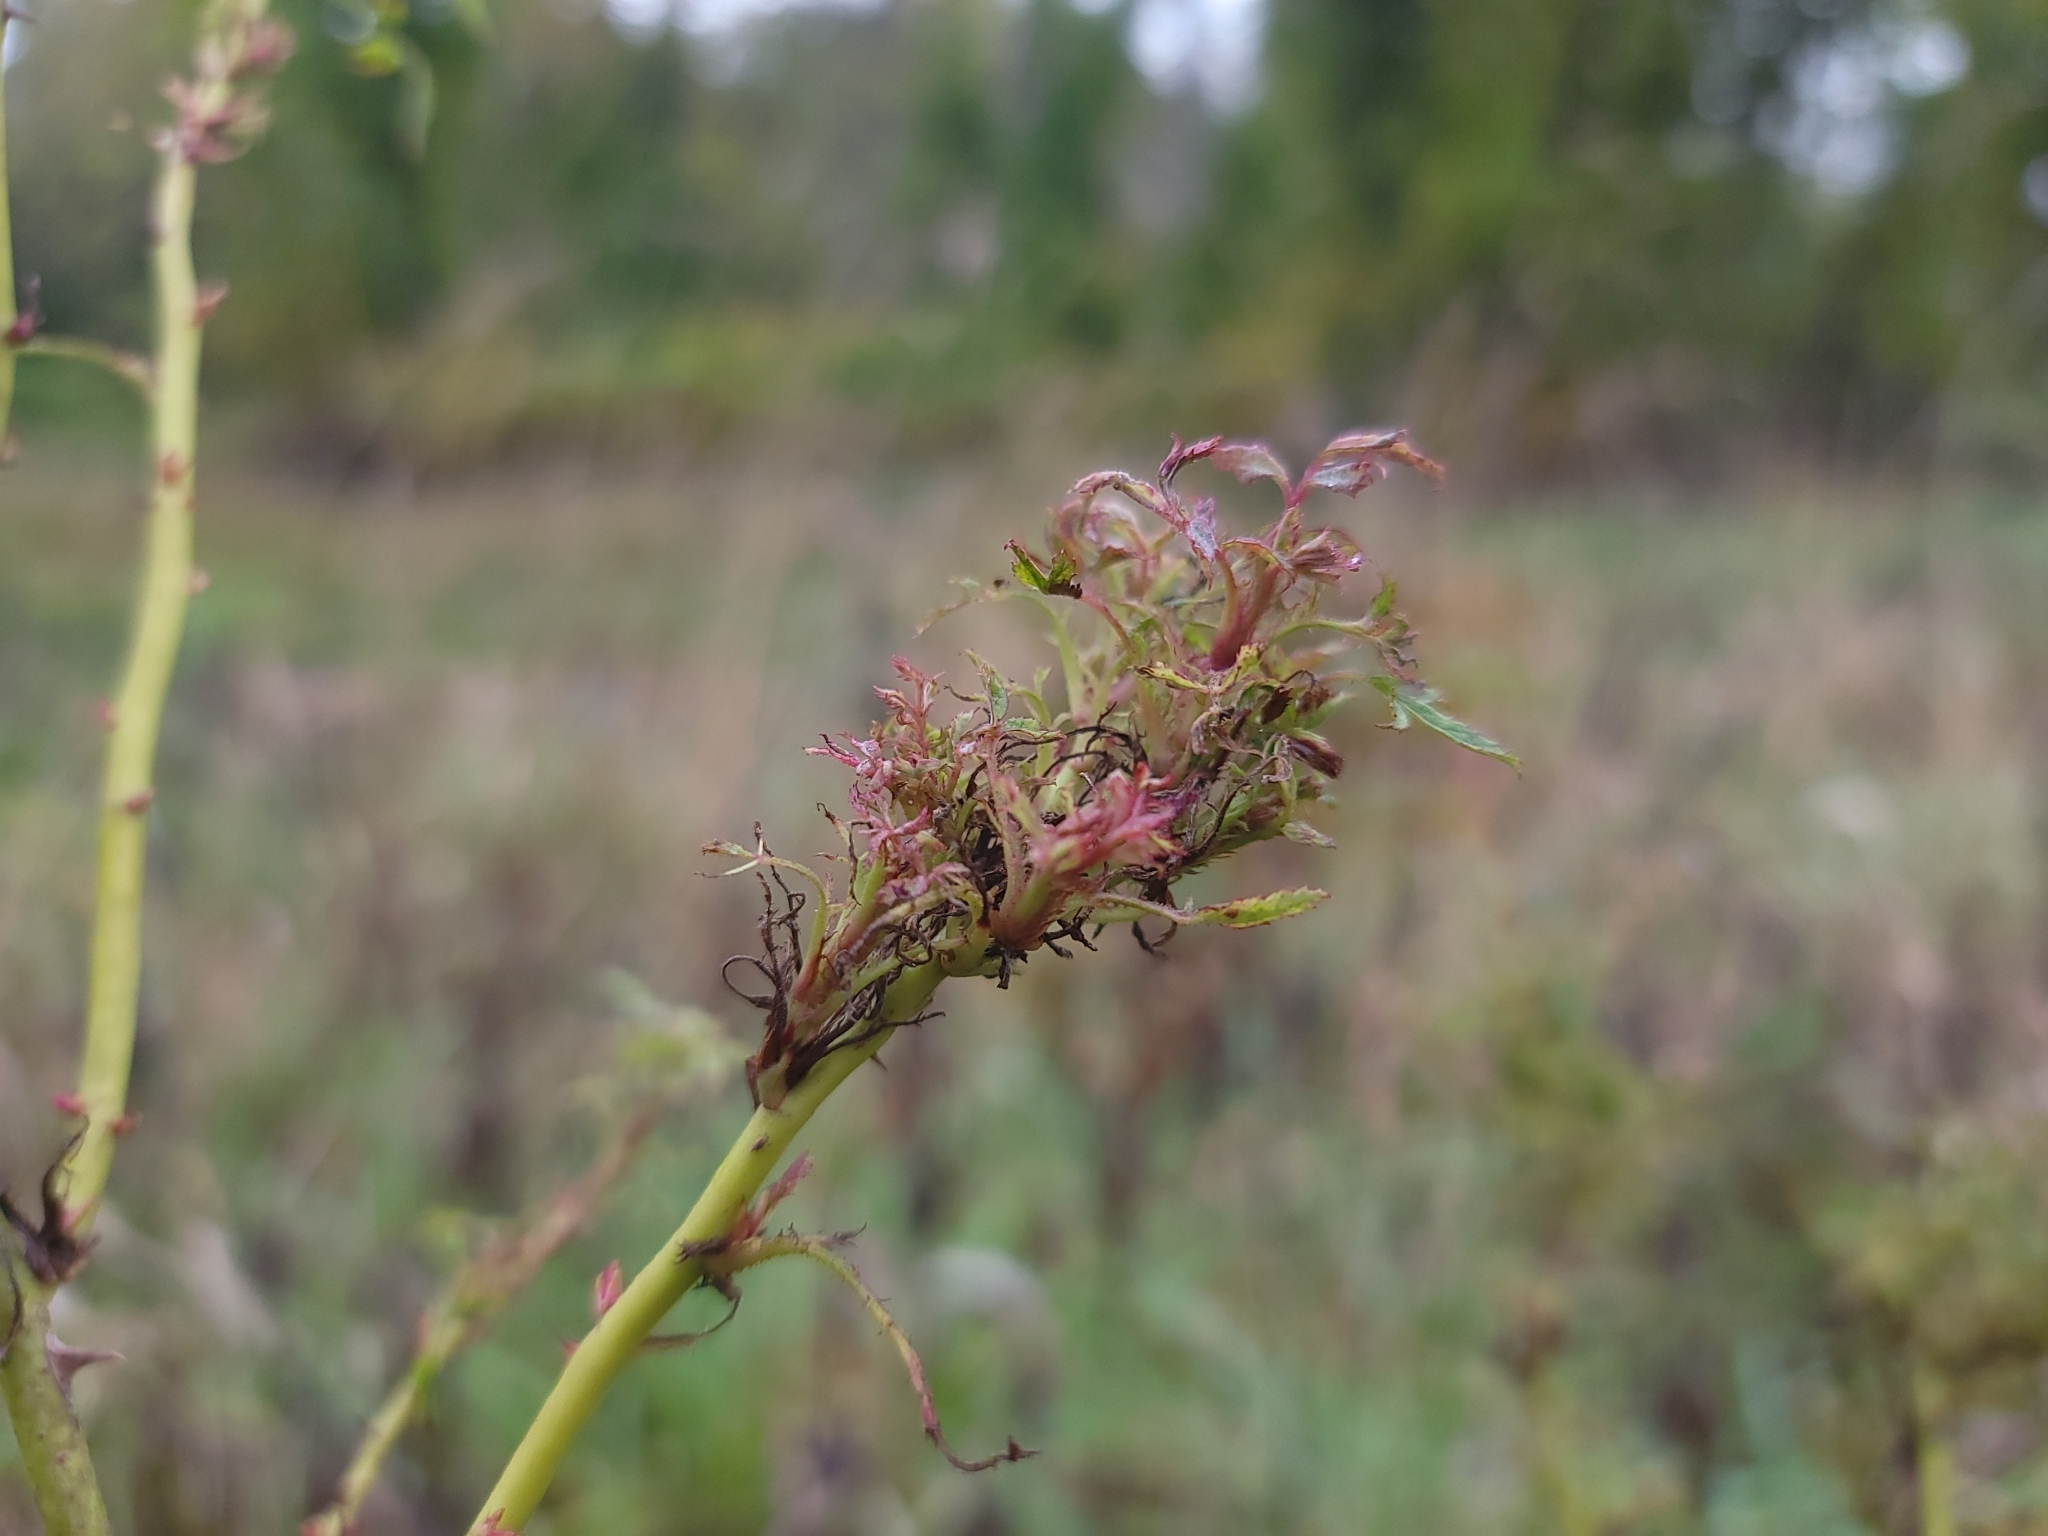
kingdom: Viruses
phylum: Negarnaviricota
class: Ellioviricetes
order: Bunyavirales
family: Fimoviridae
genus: Emaravirus
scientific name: Emaravirus rosae
